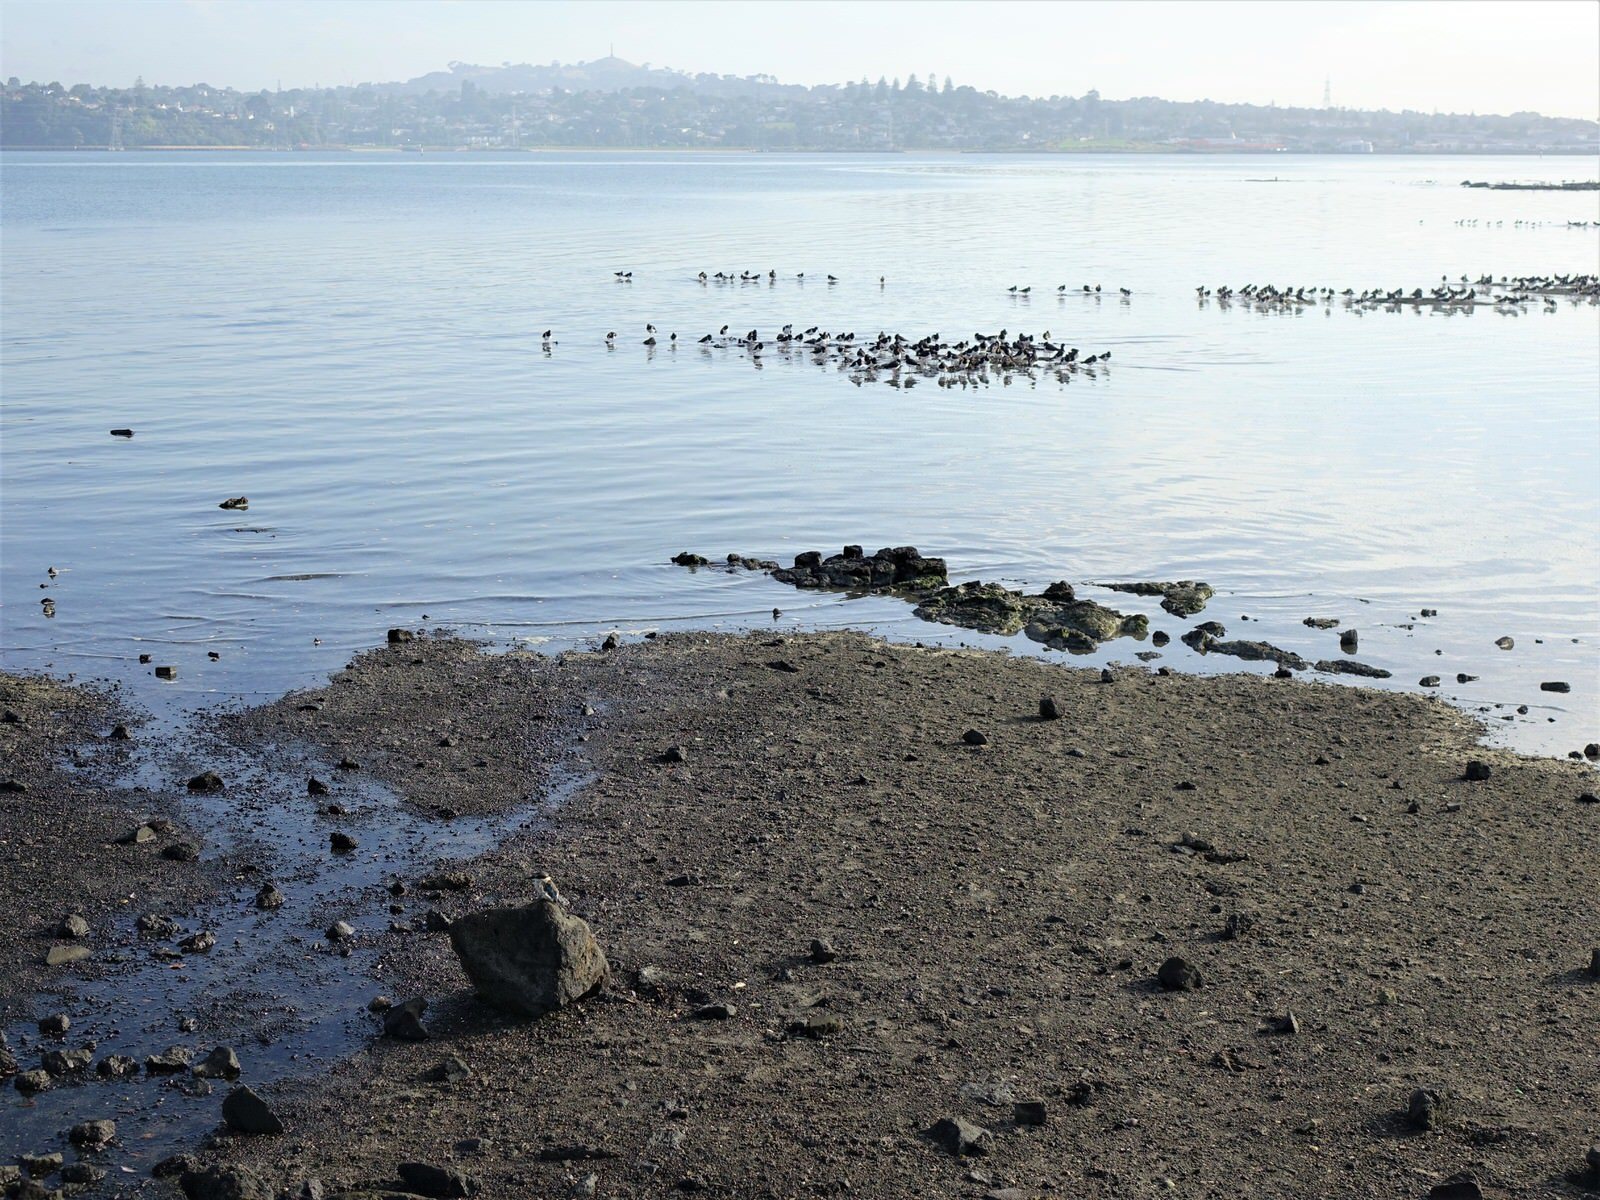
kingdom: Animalia
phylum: Chordata
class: Aves
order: Coraciiformes
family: Alcedinidae
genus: Todiramphus
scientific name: Todiramphus sanctus
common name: Sacred kingfisher
